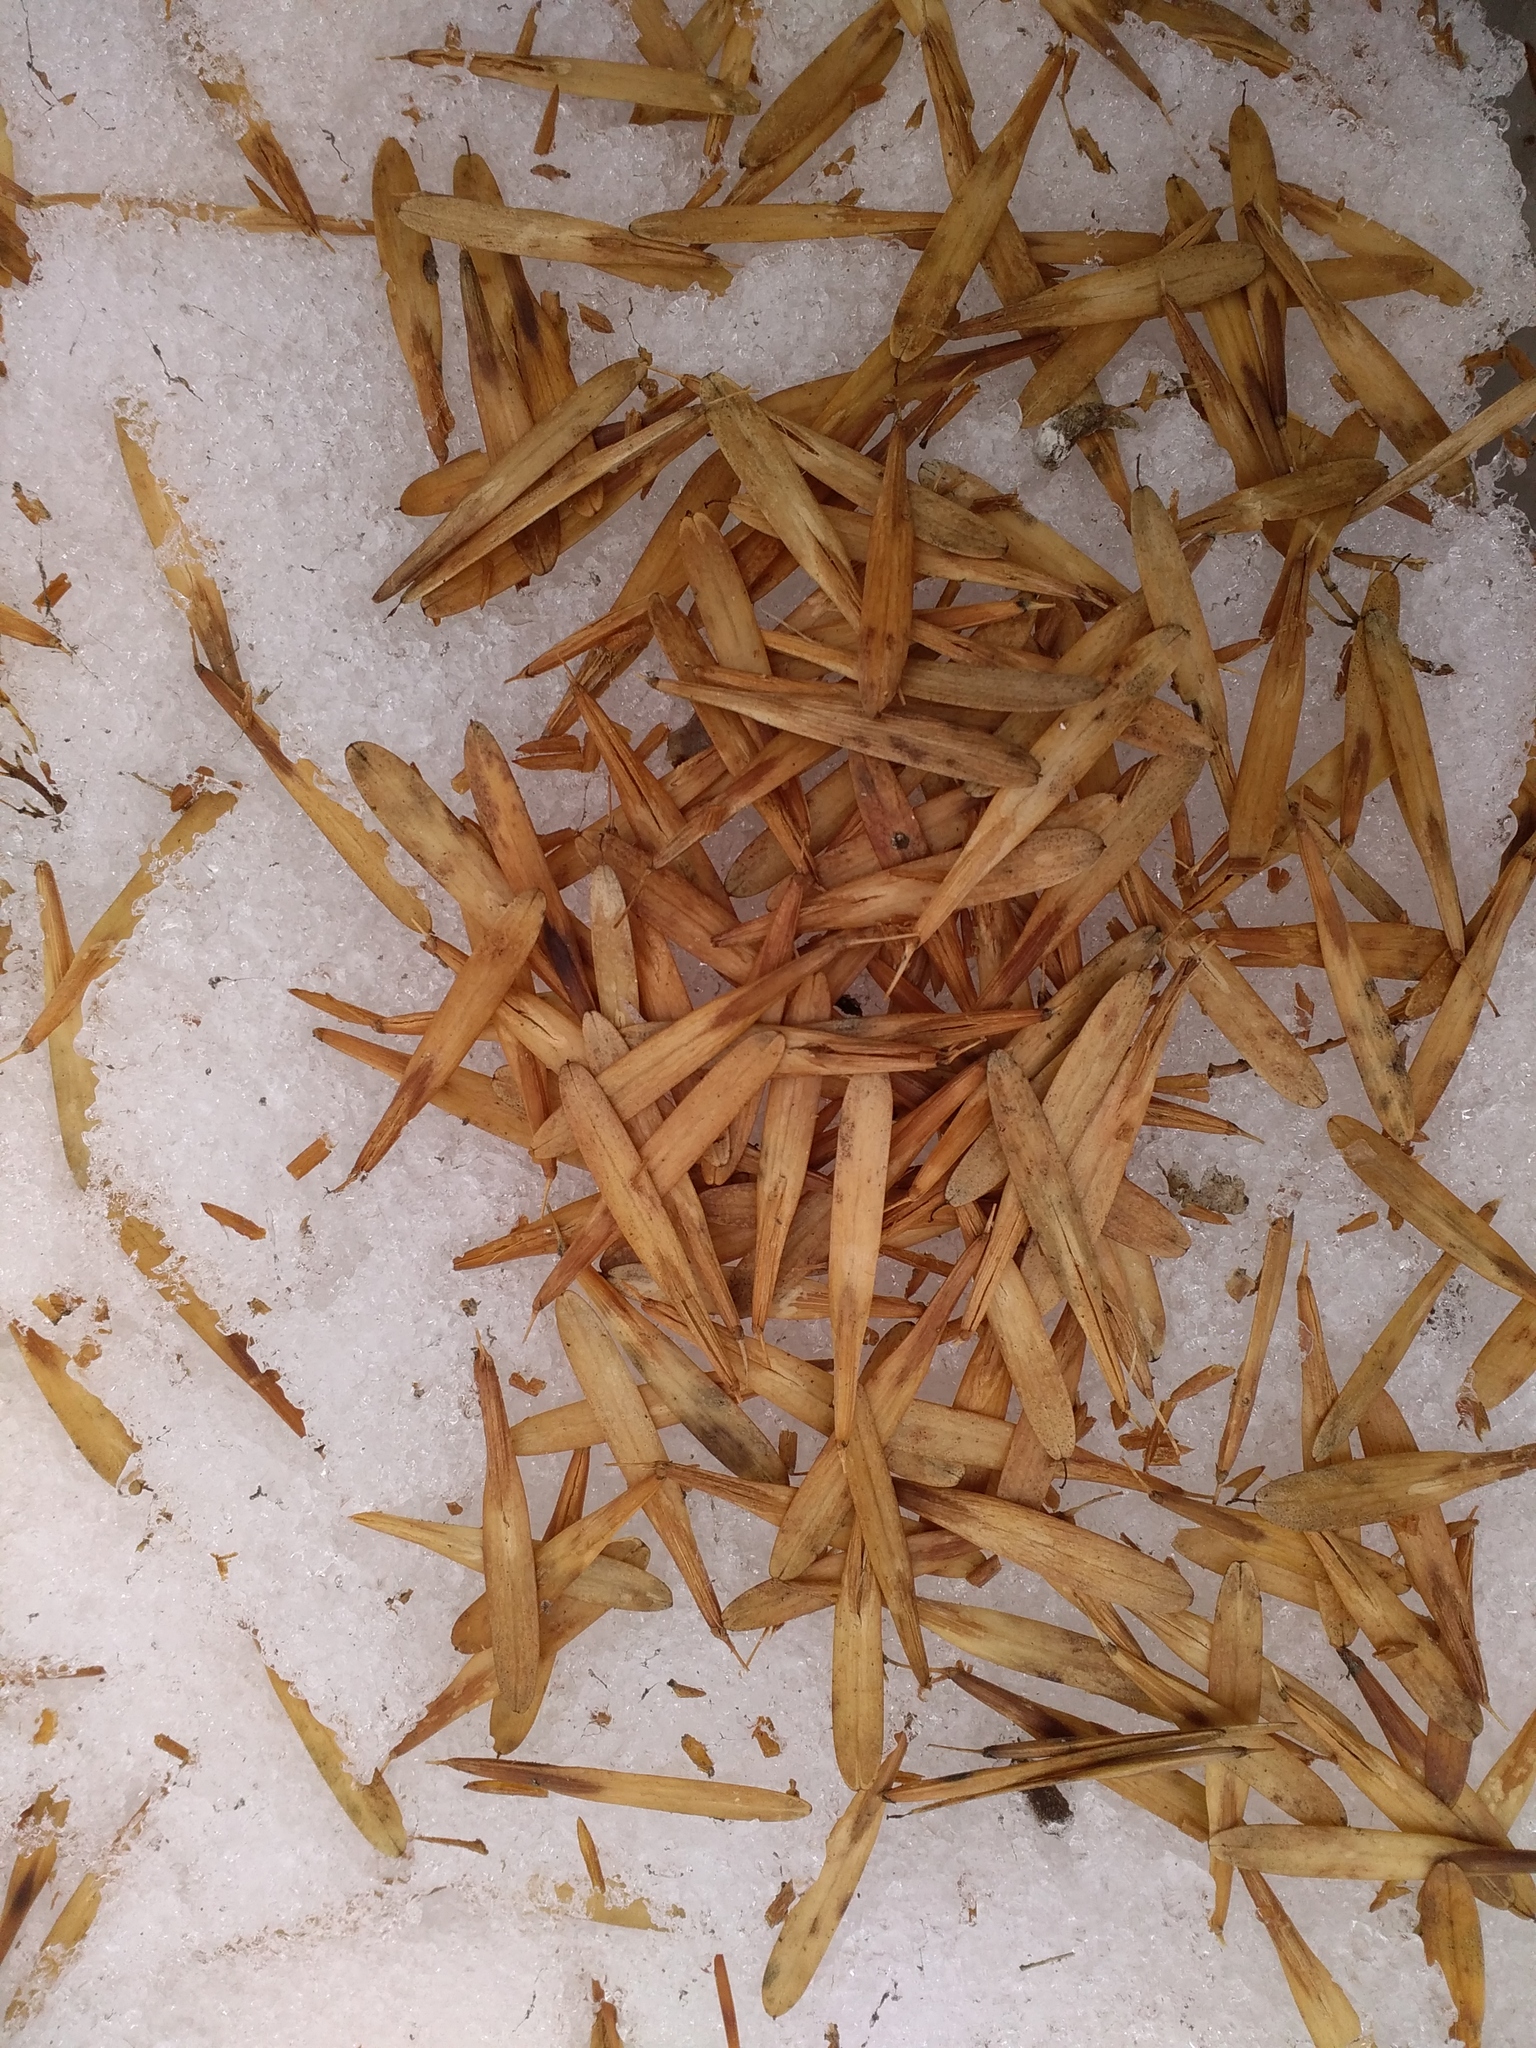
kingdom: Plantae
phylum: Tracheophyta
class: Magnoliopsida
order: Lamiales
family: Oleaceae
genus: Fraxinus
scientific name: Fraxinus excelsior
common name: European ash
